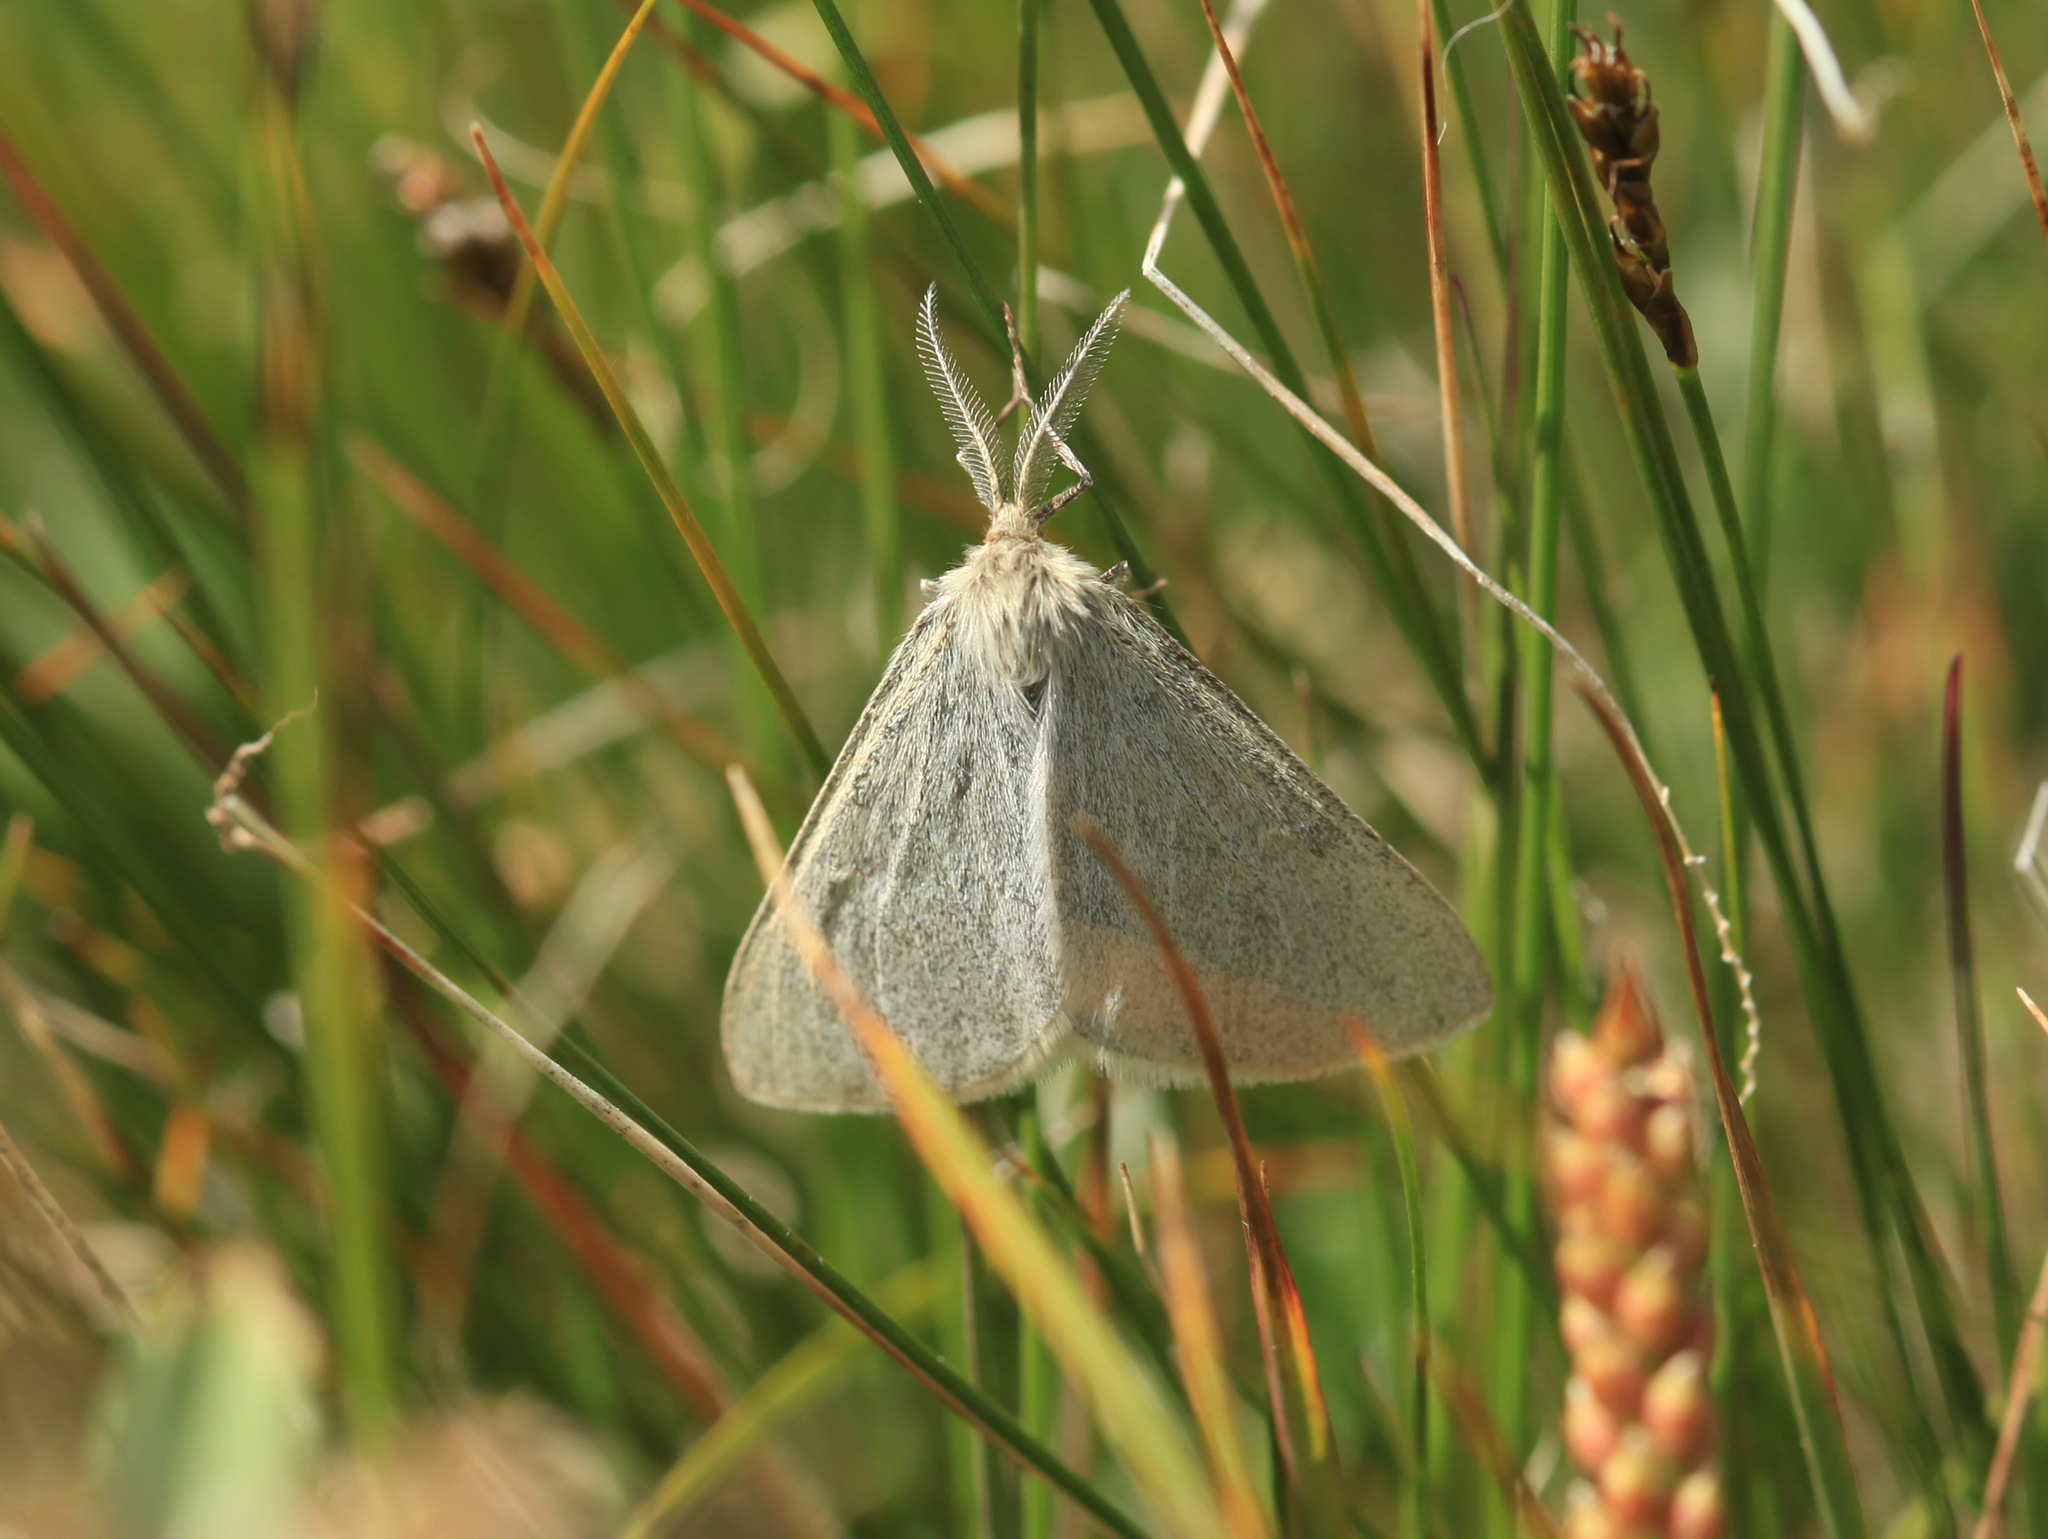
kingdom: Animalia
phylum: Arthropoda
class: Insecta
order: Lepidoptera
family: Geometridae
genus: Aspitates
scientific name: Aspitates obscurata
